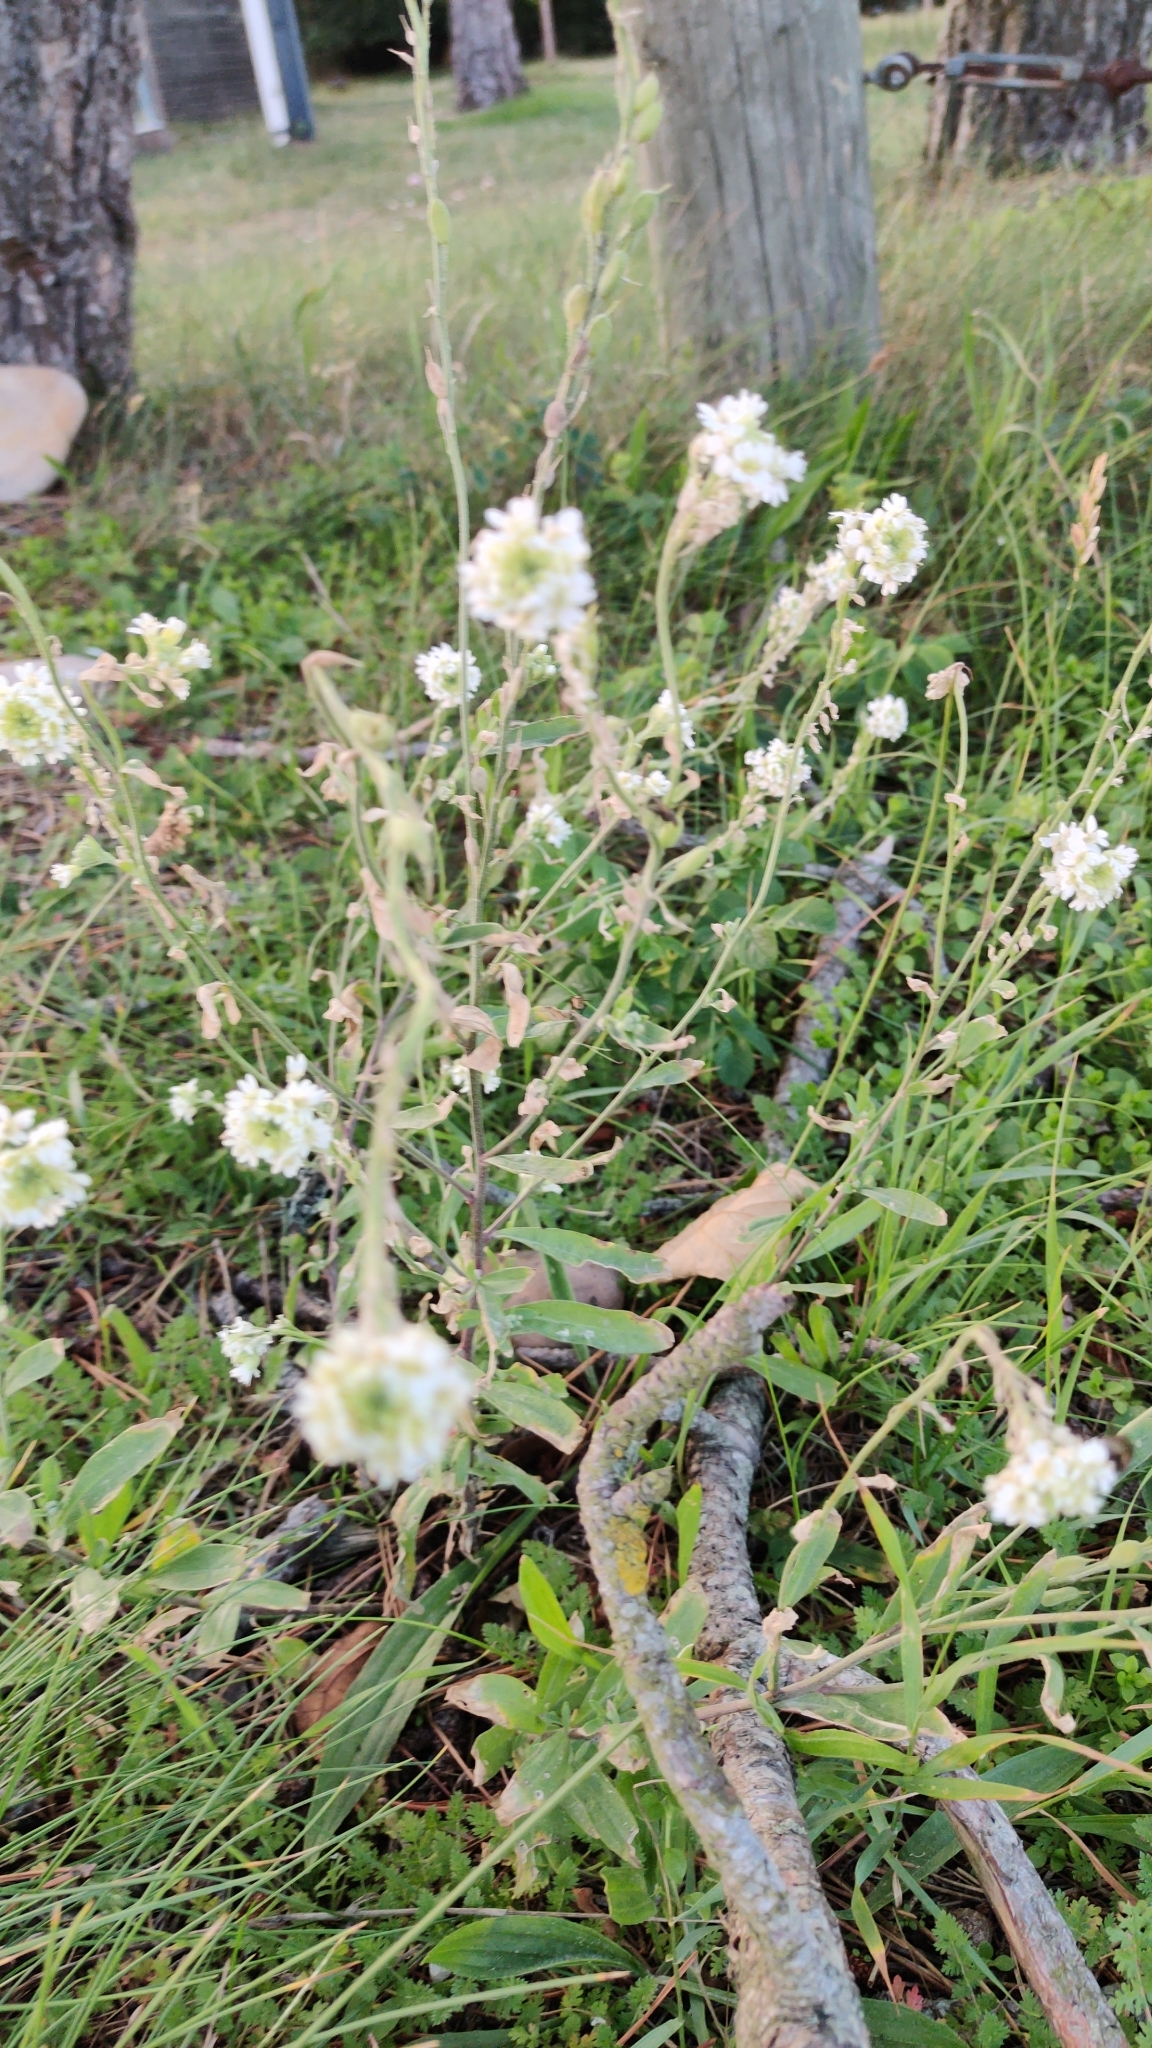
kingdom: Plantae
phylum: Tracheophyta
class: Magnoliopsida
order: Brassicales
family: Brassicaceae
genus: Berteroa
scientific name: Berteroa incana
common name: Hoary alison
